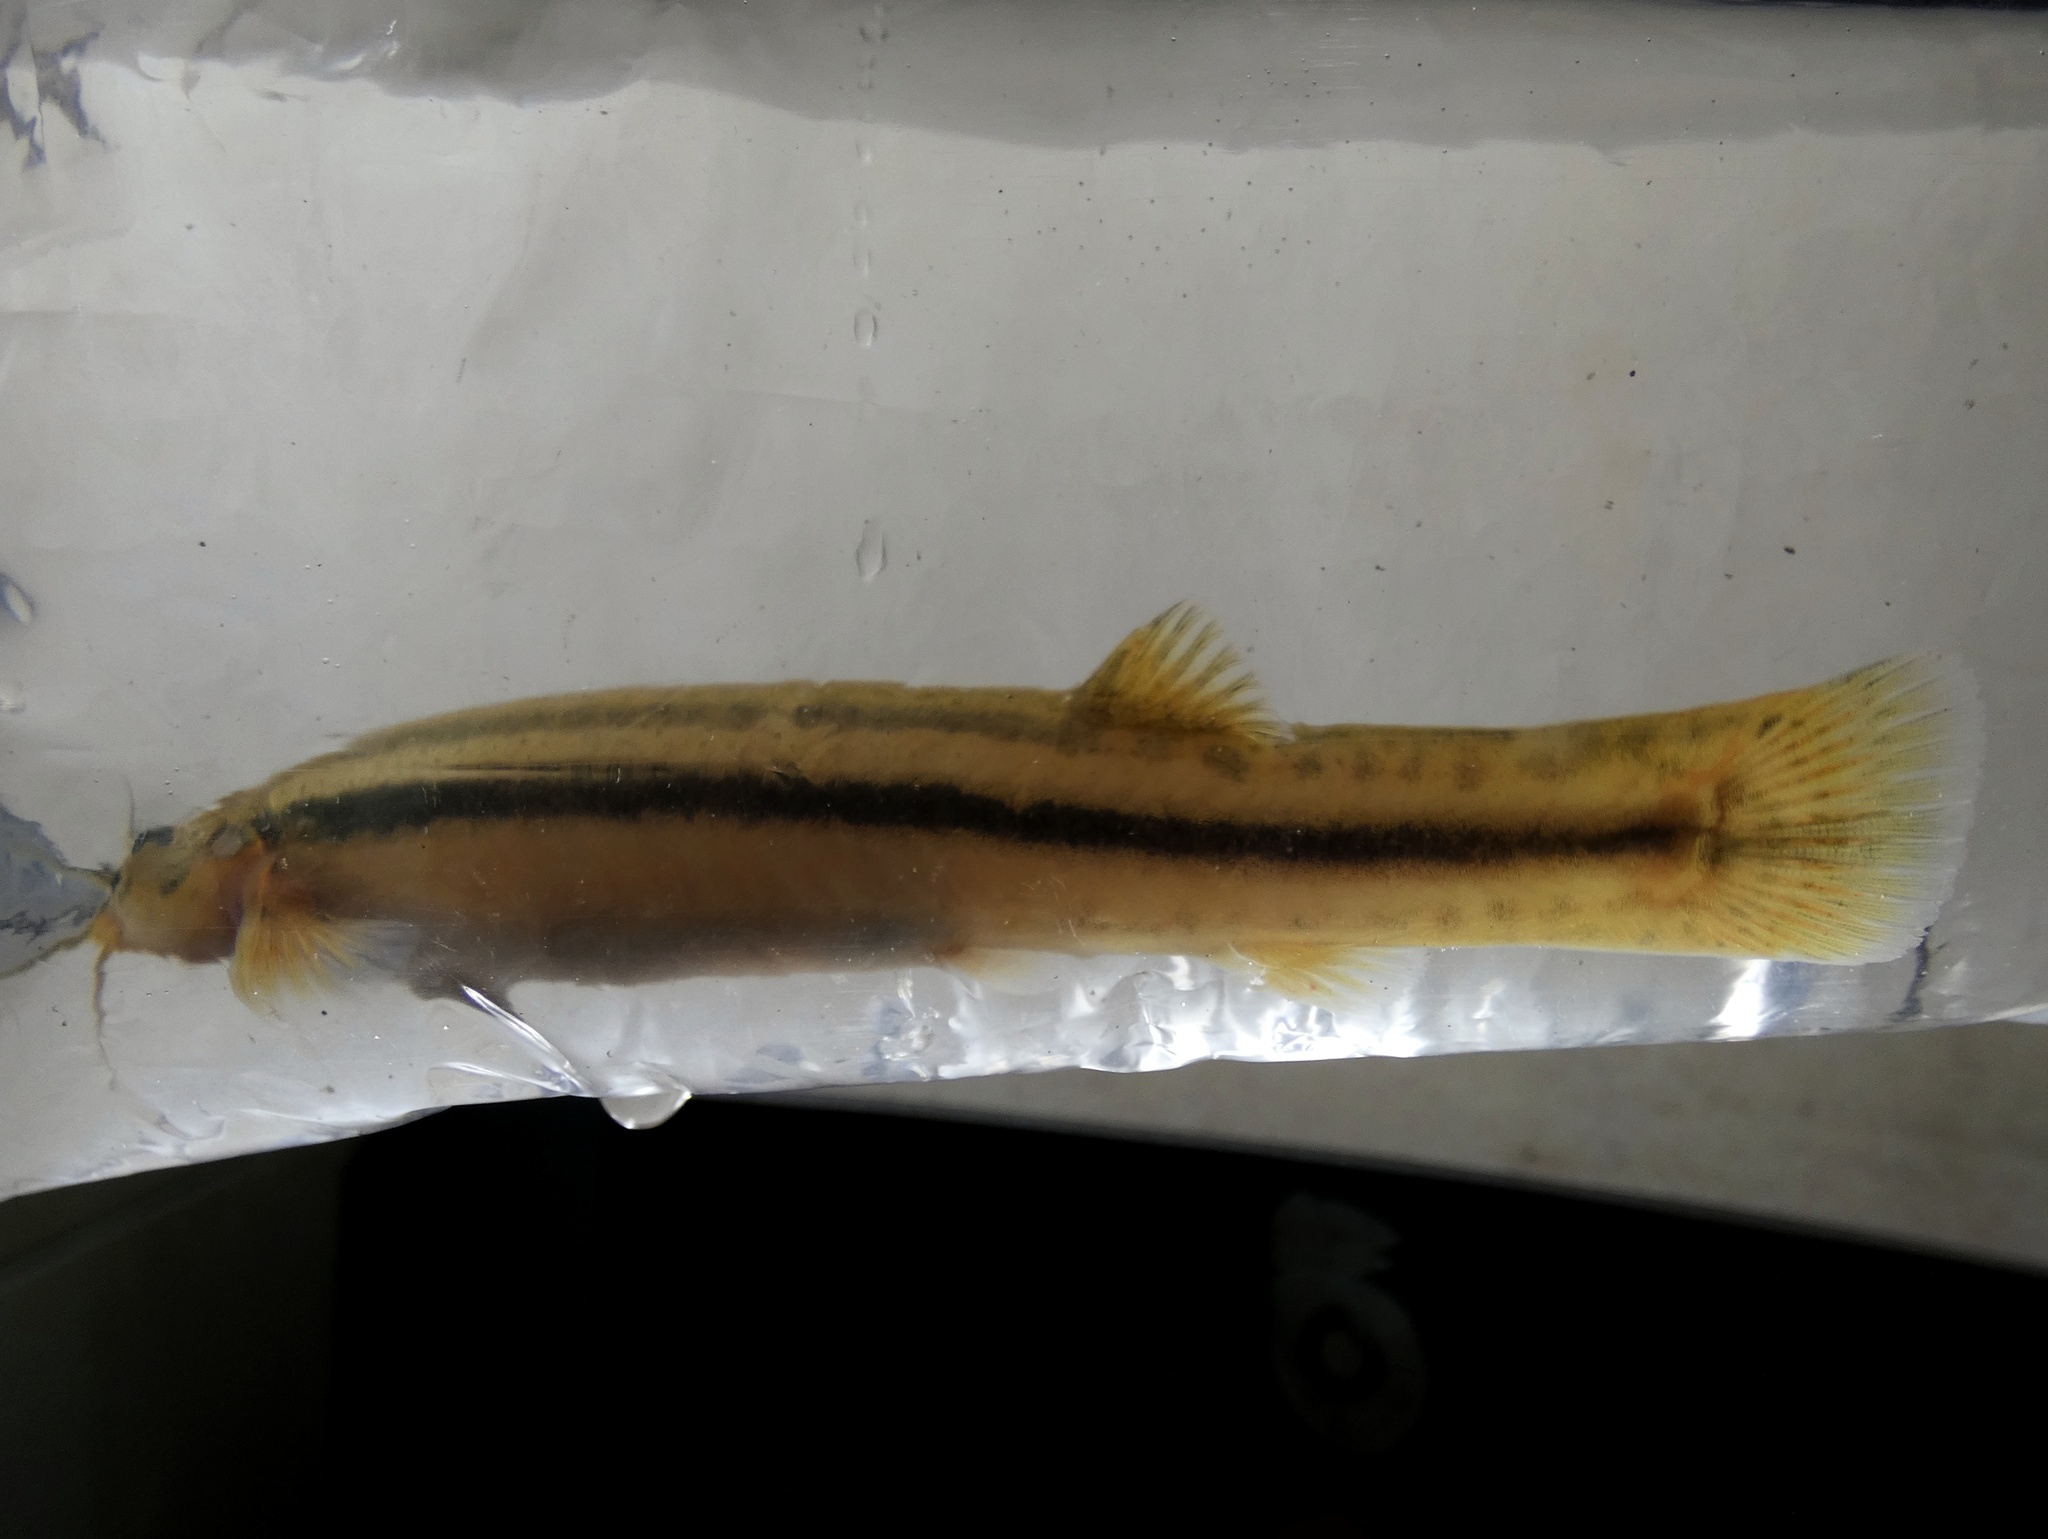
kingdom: Animalia
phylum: Chordata
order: Siluriformes
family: Trichomycteridae
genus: Trichomycterus
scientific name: Trichomycterus striatus
